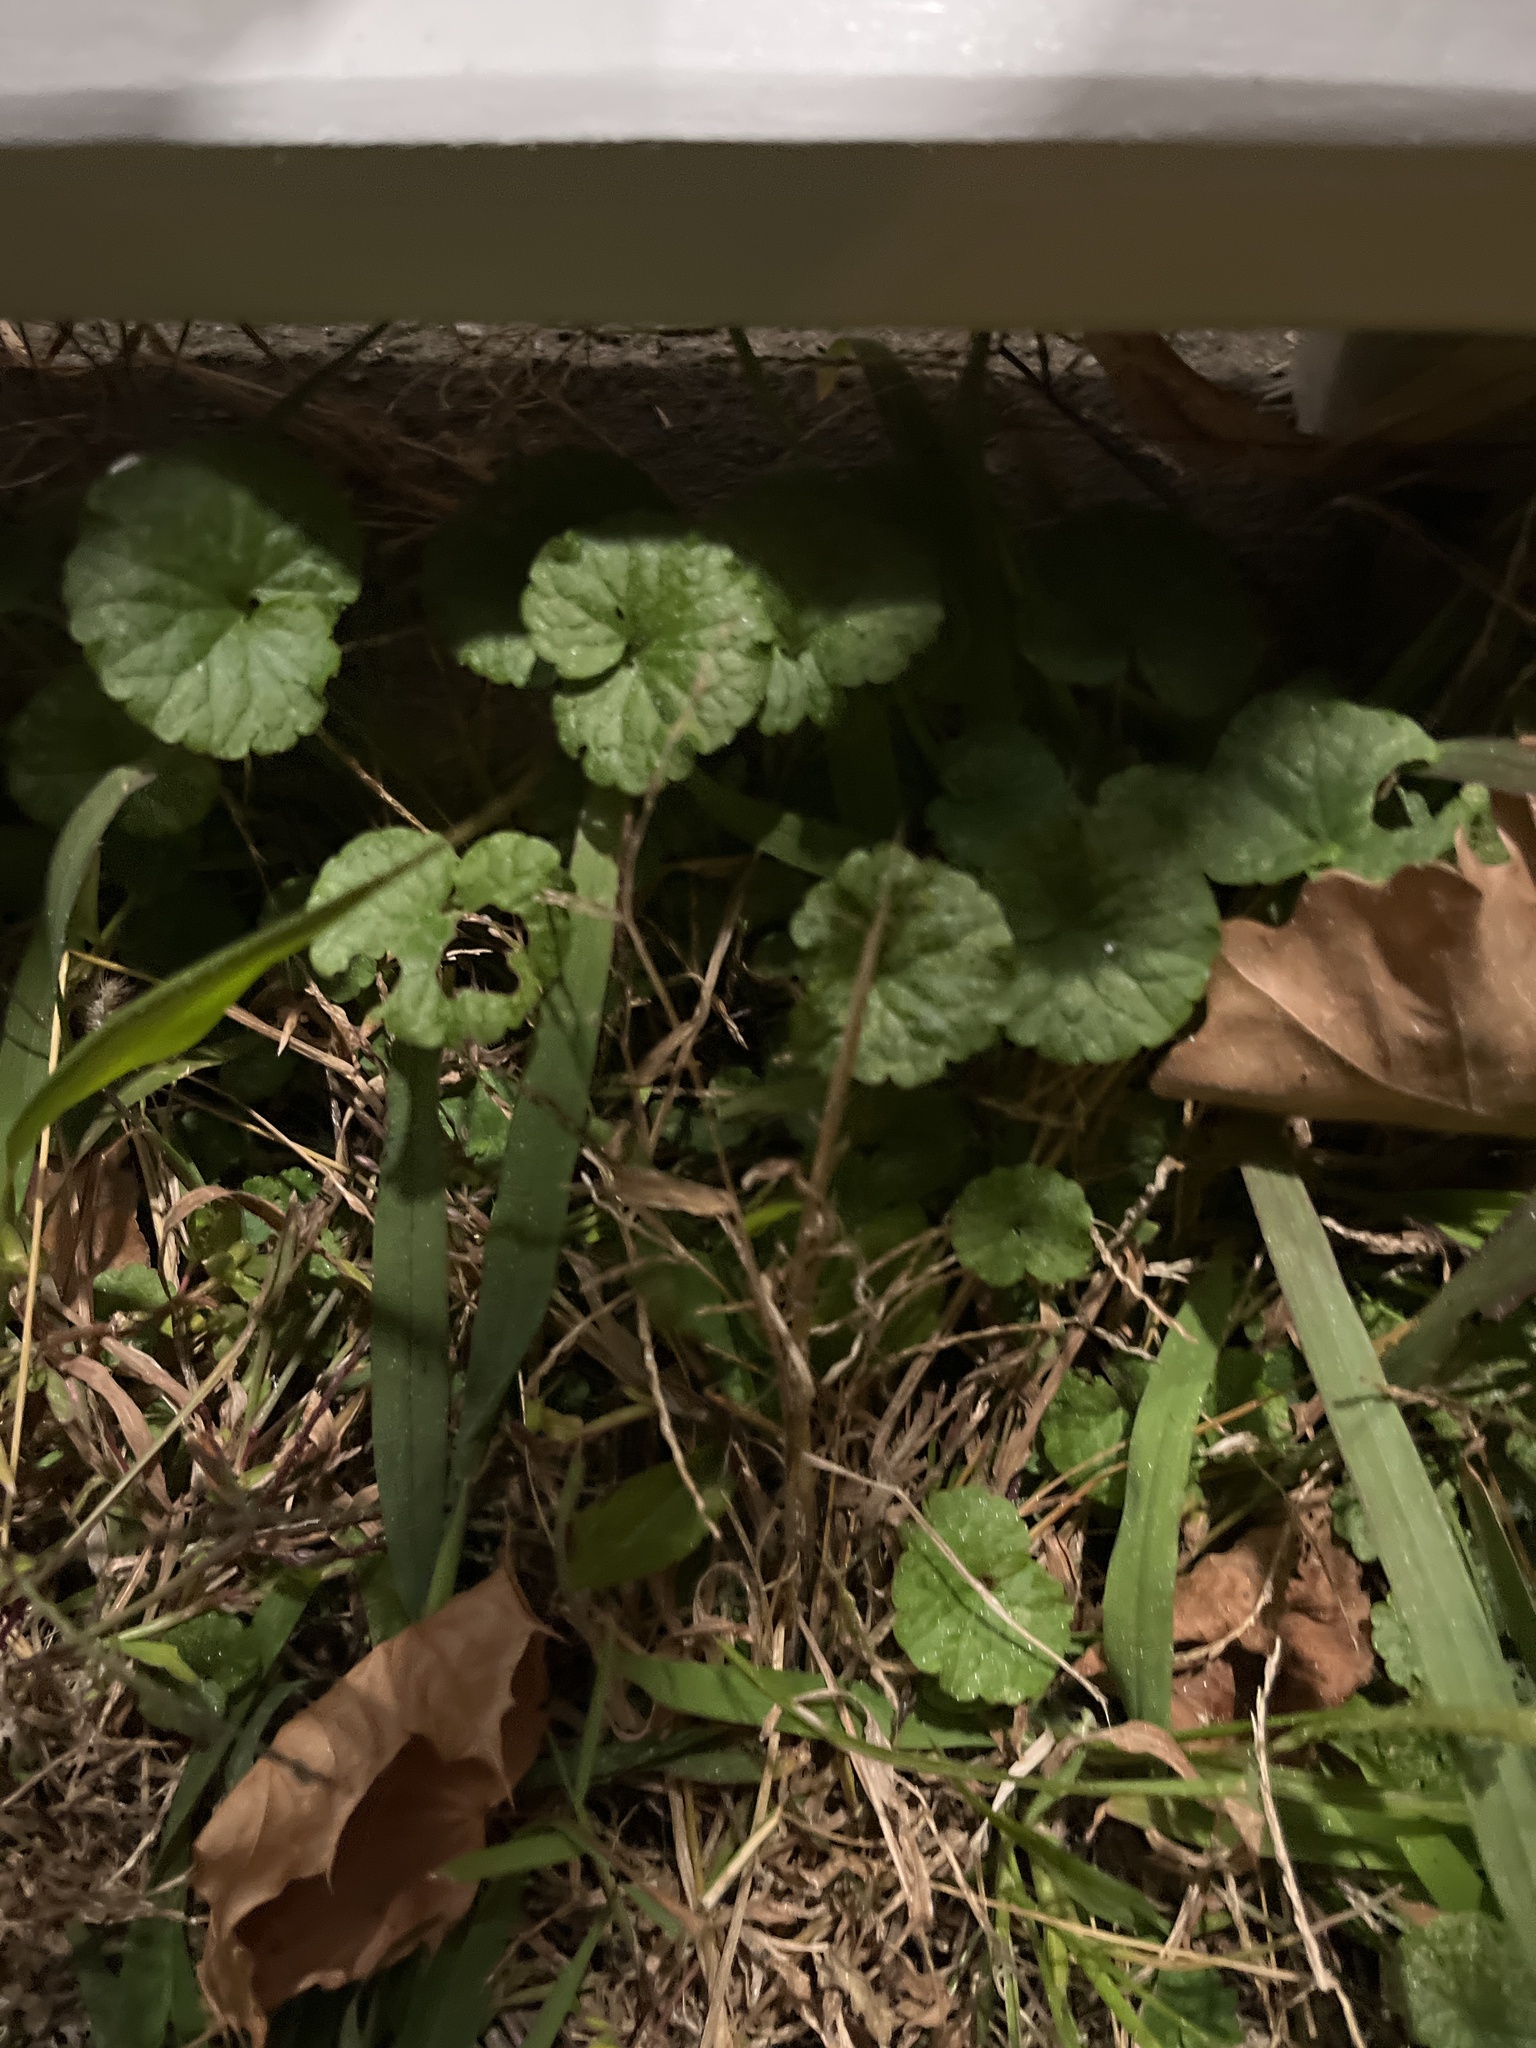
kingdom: Plantae
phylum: Tracheophyta
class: Magnoliopsida
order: Lamiales
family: Lamiaceae
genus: Glechoma
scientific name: Glechoma hederacea
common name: Ground ivy
